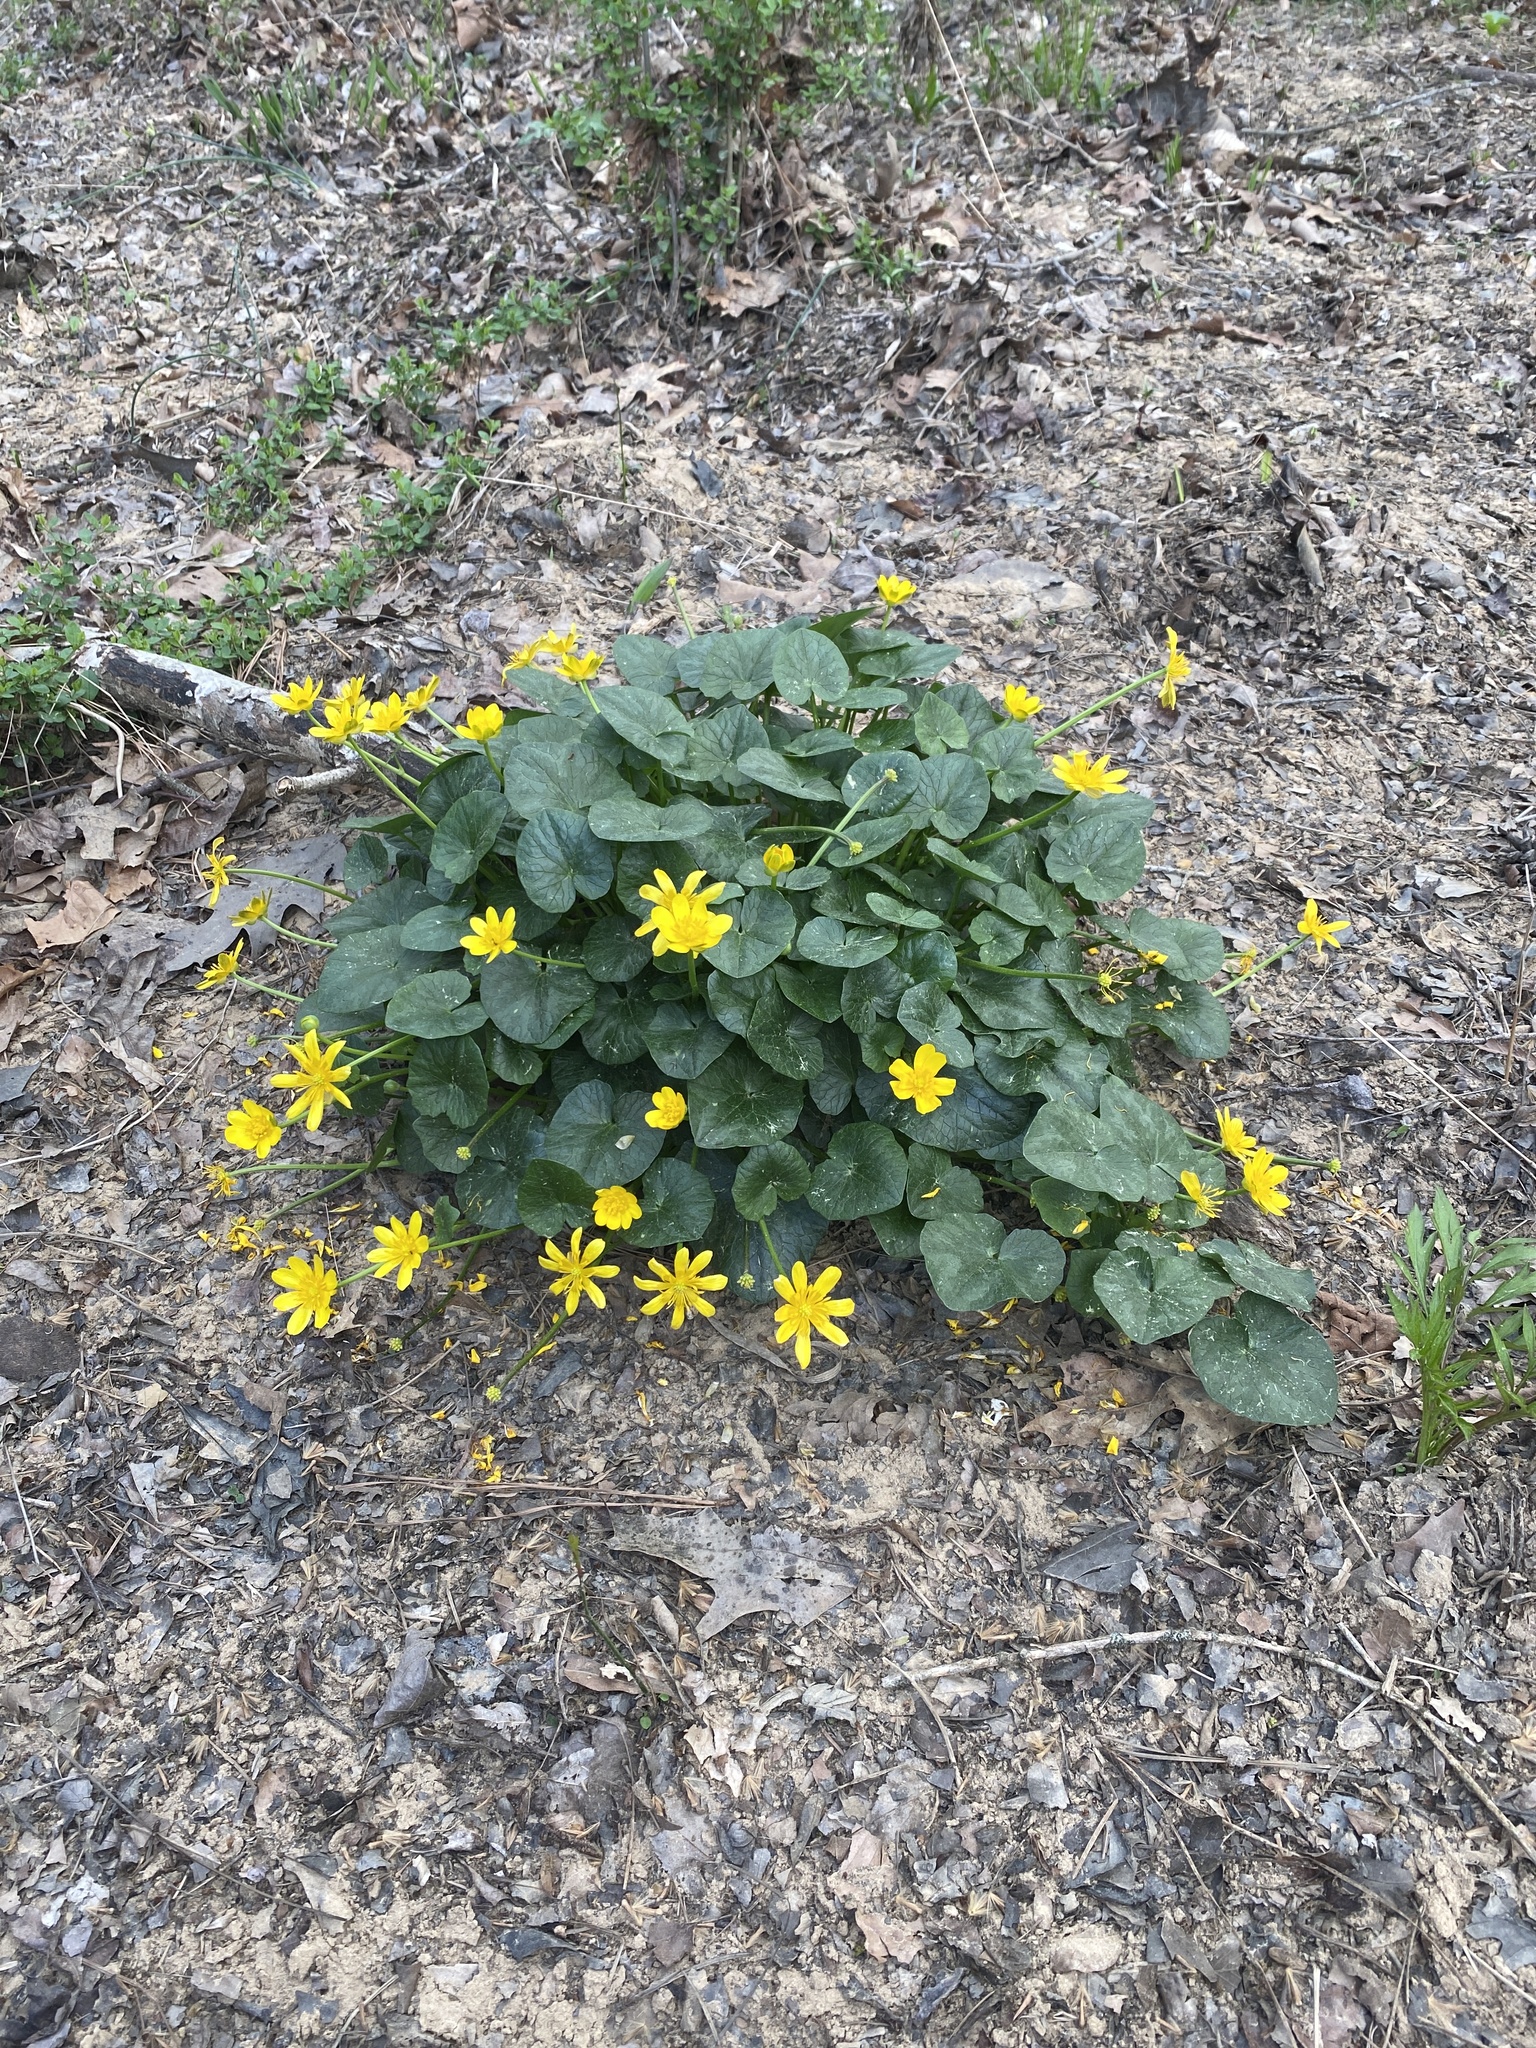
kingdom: Plantae
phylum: Tracheophyta
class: Magnoliopsida
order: Ranunculales
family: Ranunculaceae
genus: Ficaria
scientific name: Ficaria verna
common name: Lesser celandine
